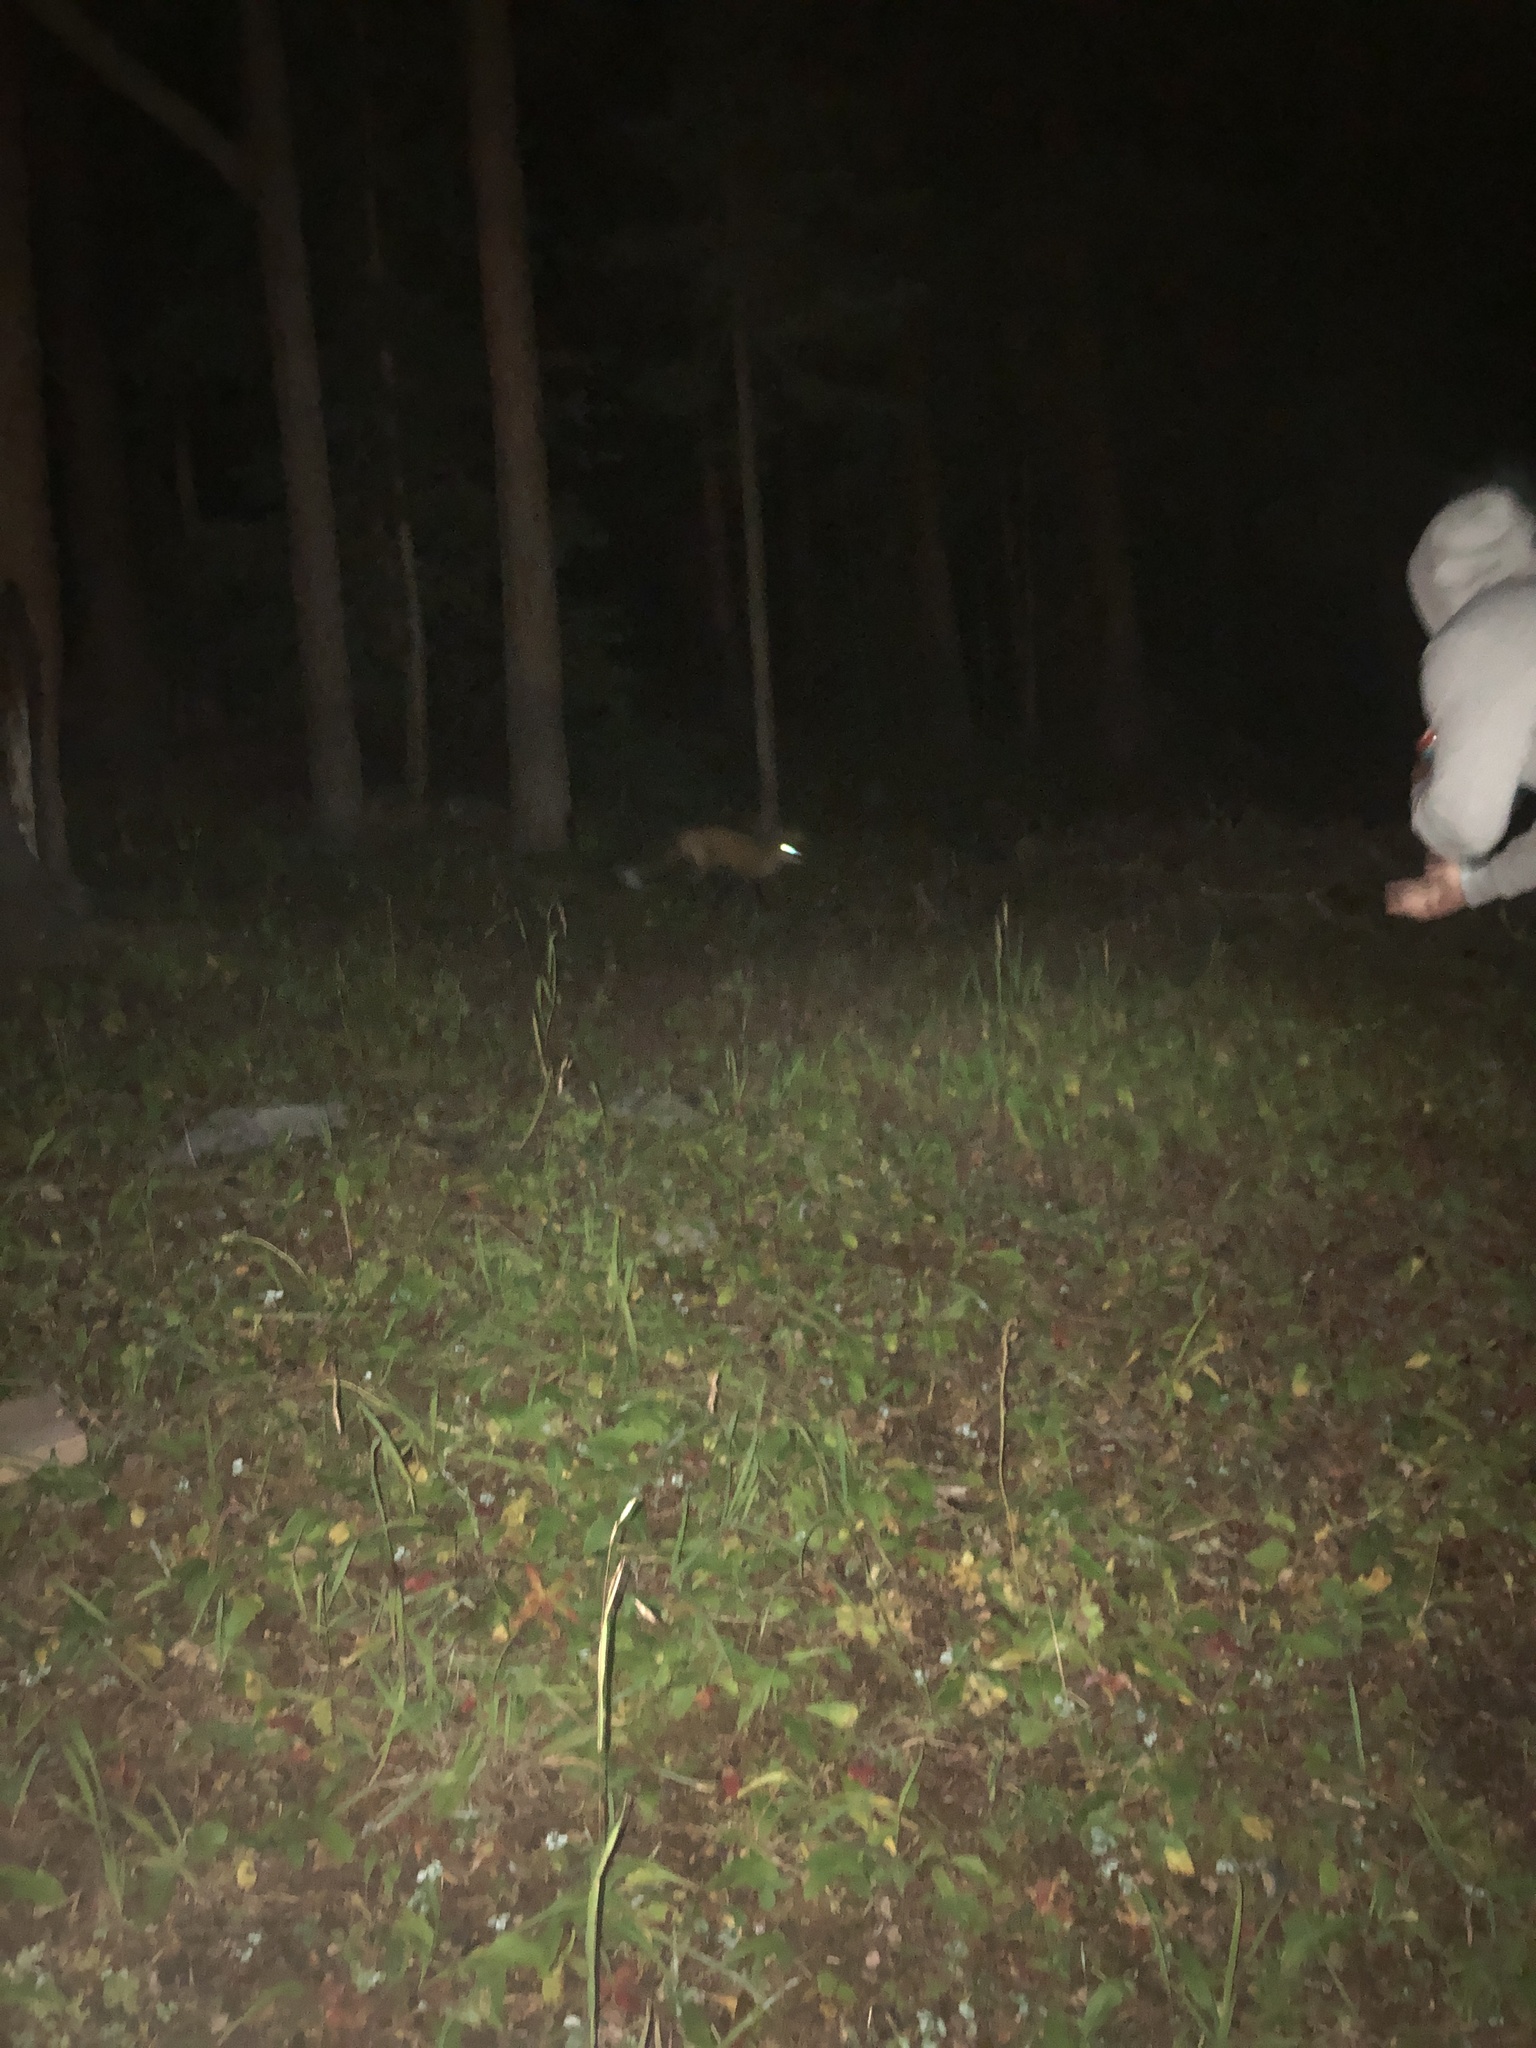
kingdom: Animalia
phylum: Chordata
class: Mammalia
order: Carnivora
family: Canidae
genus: Vulpes
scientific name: Vulpes vulpes
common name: Red fox
